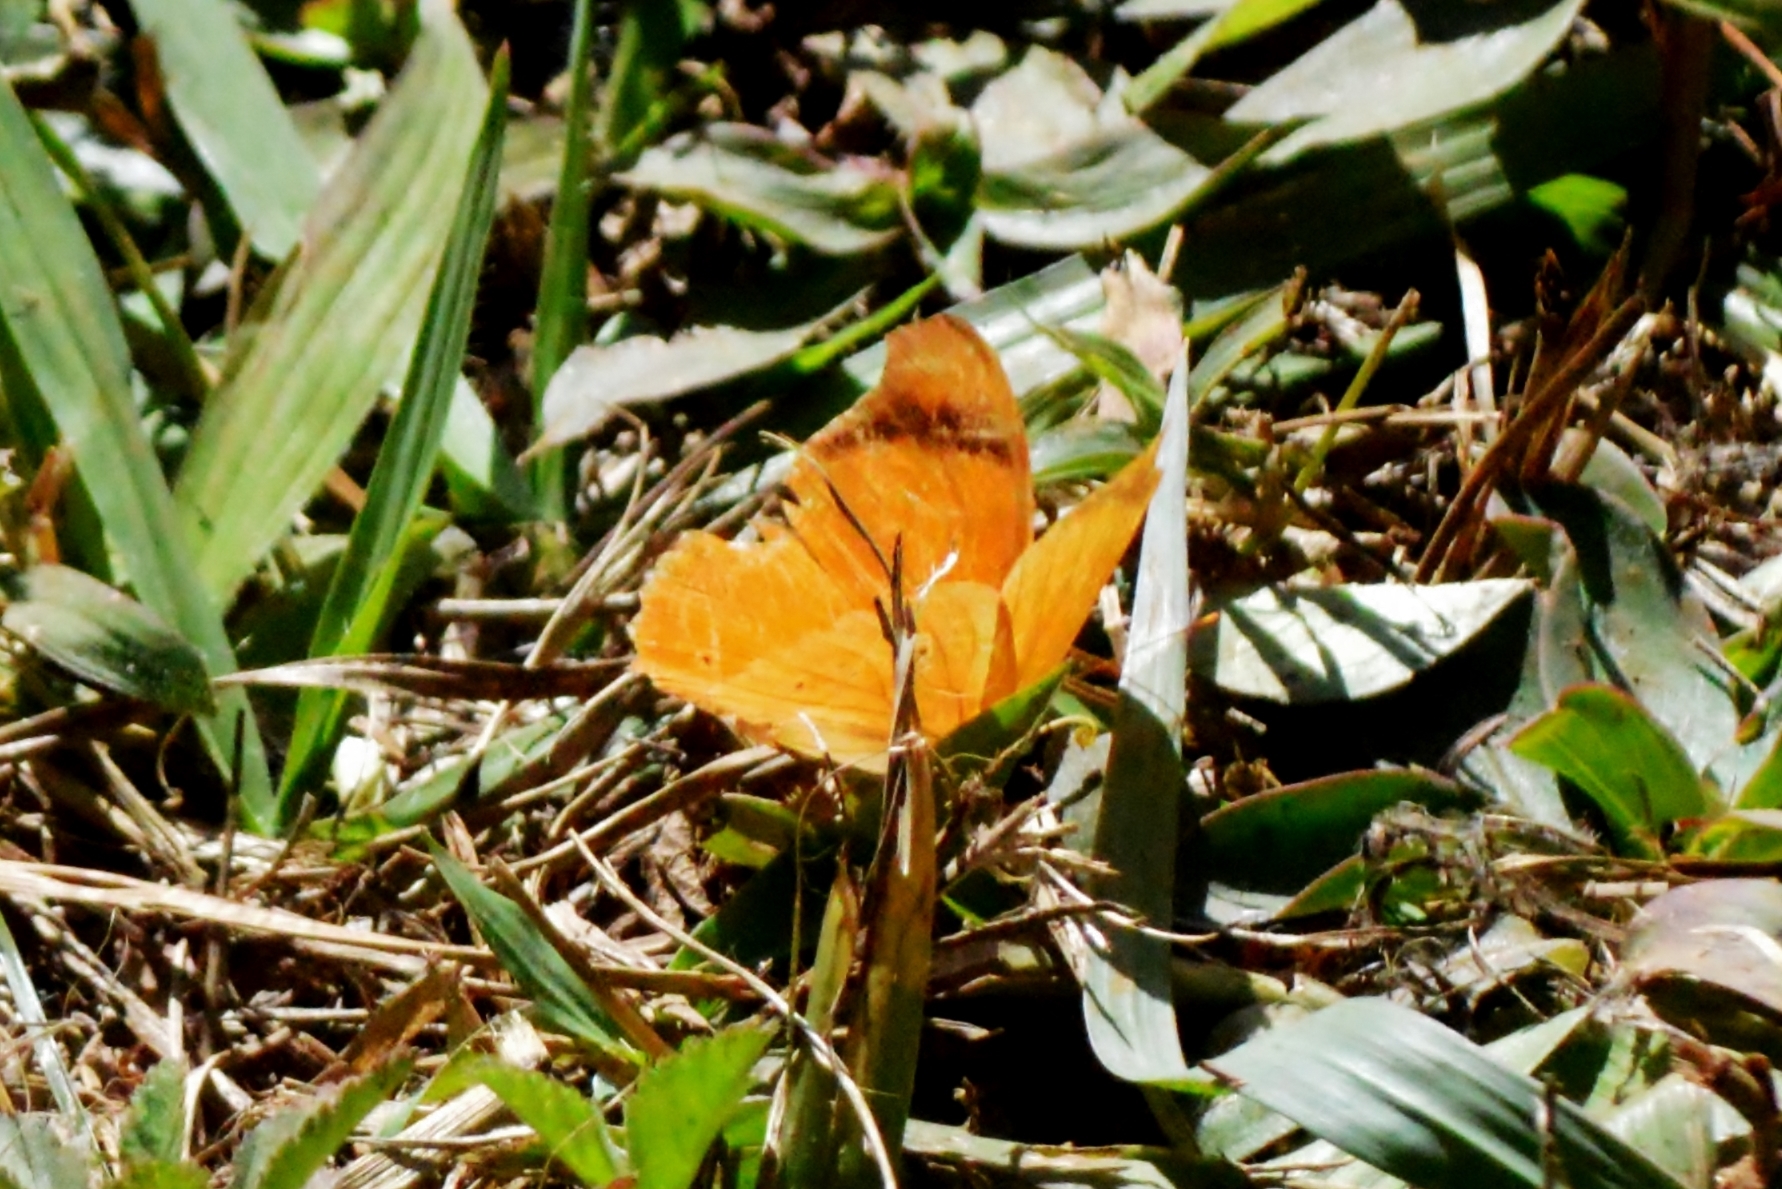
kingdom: Animalia
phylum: Arthropoda
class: Insecta
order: Lepidoptera
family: Nymphalidae
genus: Temenis
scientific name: Temenis laothoe
